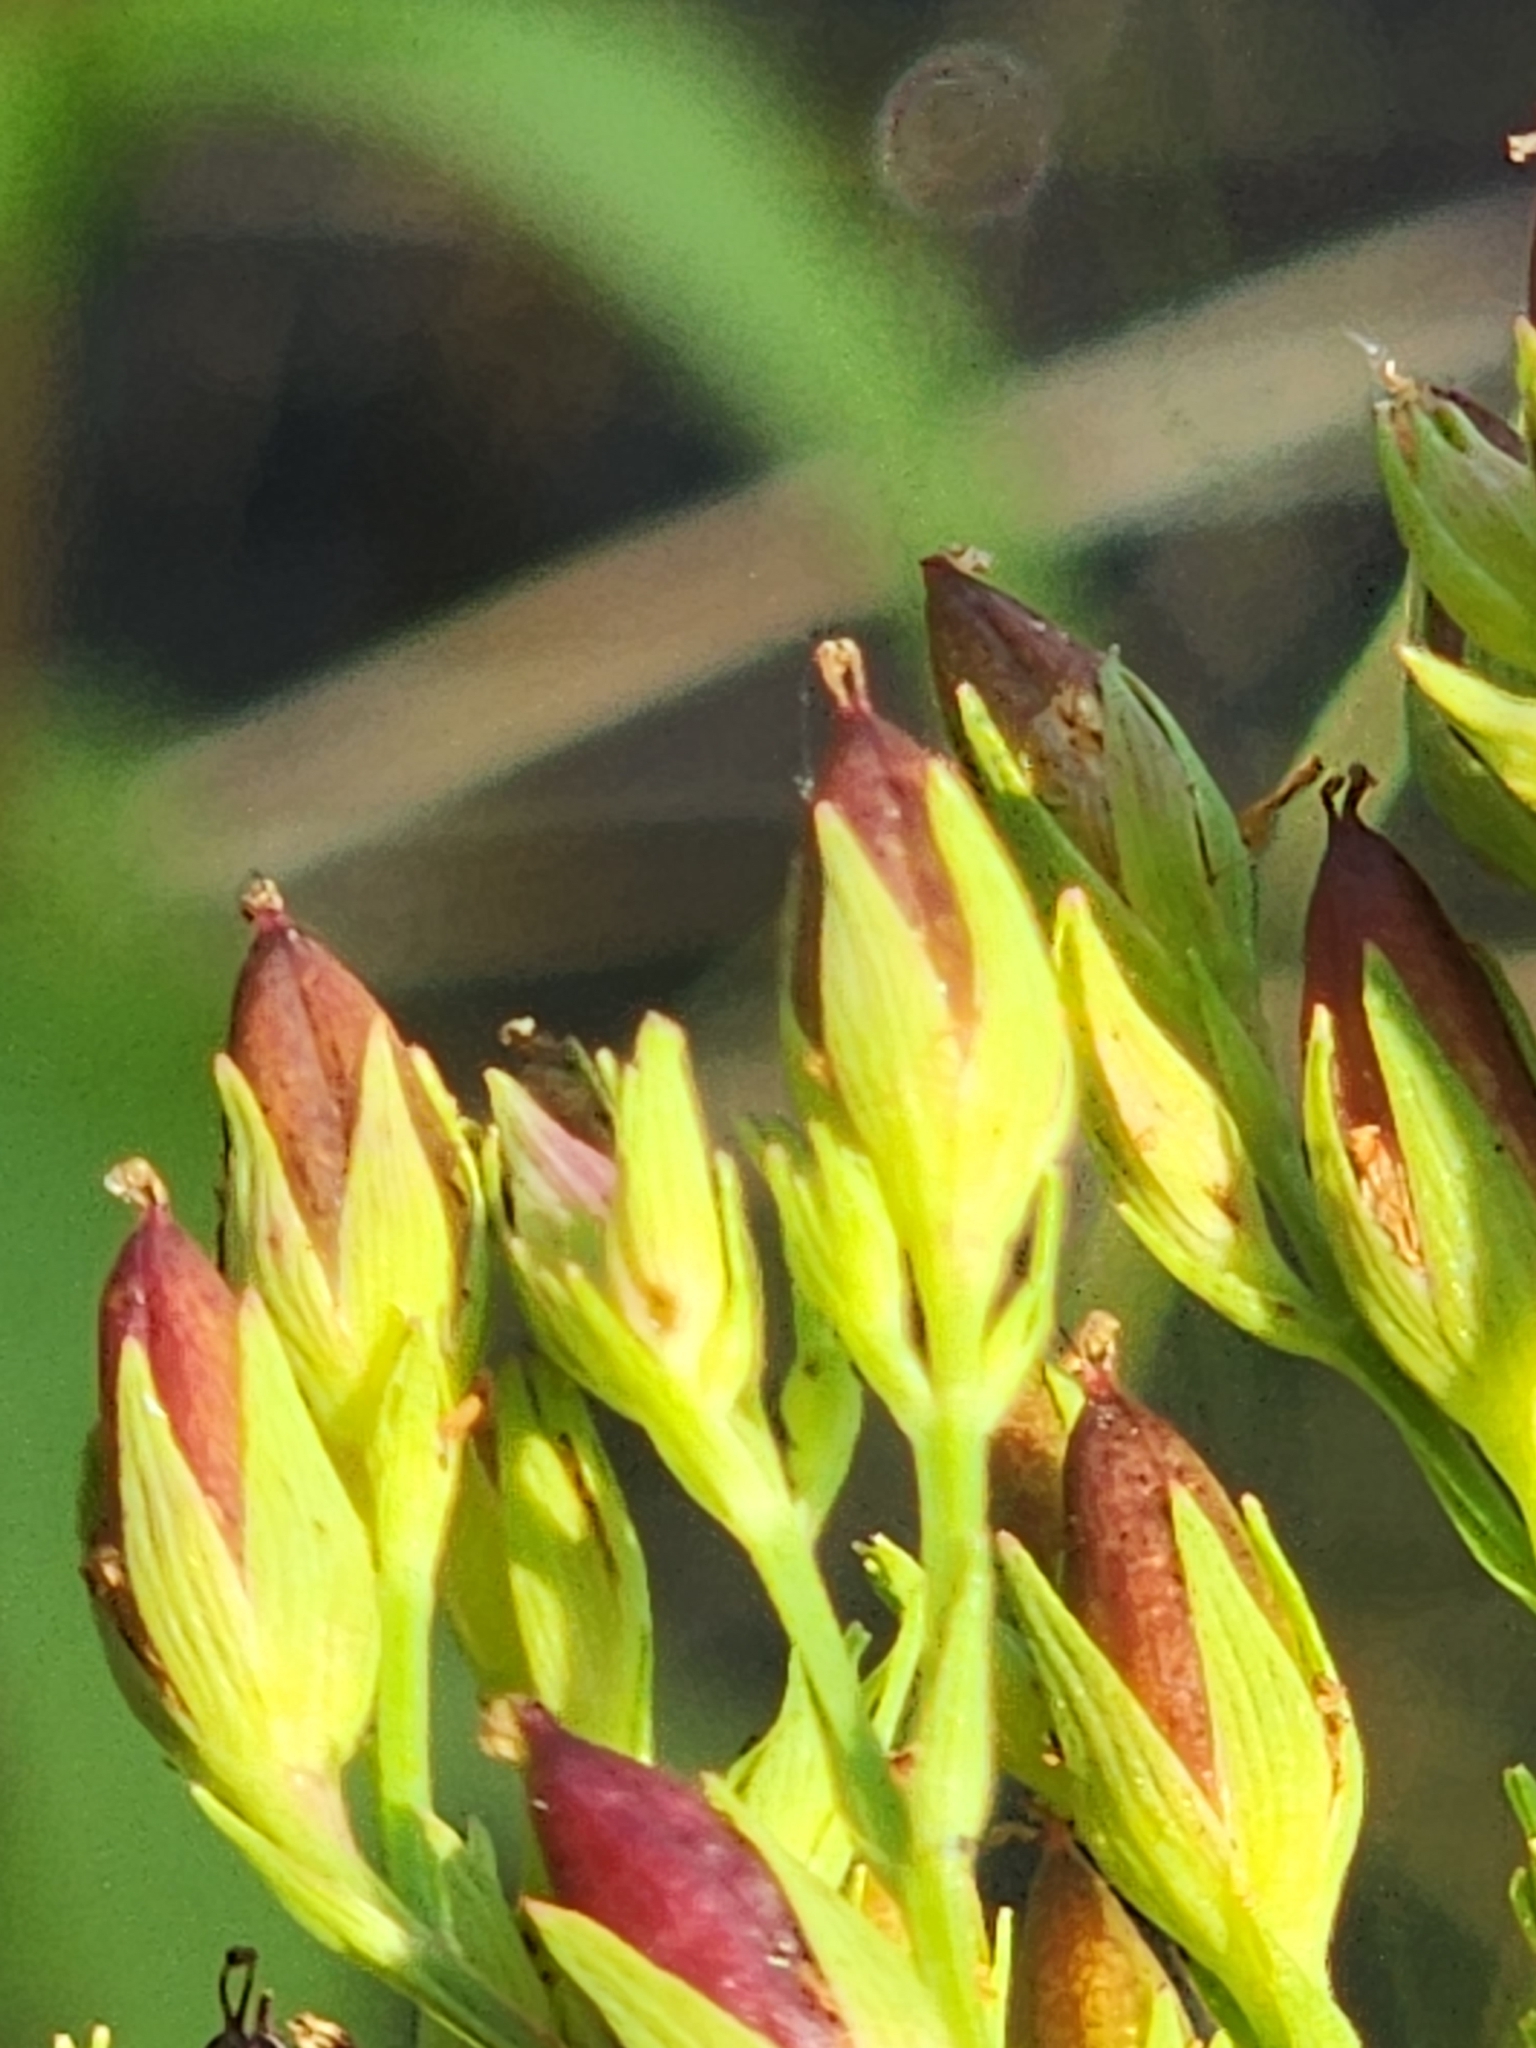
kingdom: Plantae
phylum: Tracheophyta
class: Magnoliopsida
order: Malpighiales
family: Hypericaceae
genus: Hypericum
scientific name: Hypericum majus
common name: Greater canadian st. john's-wort
